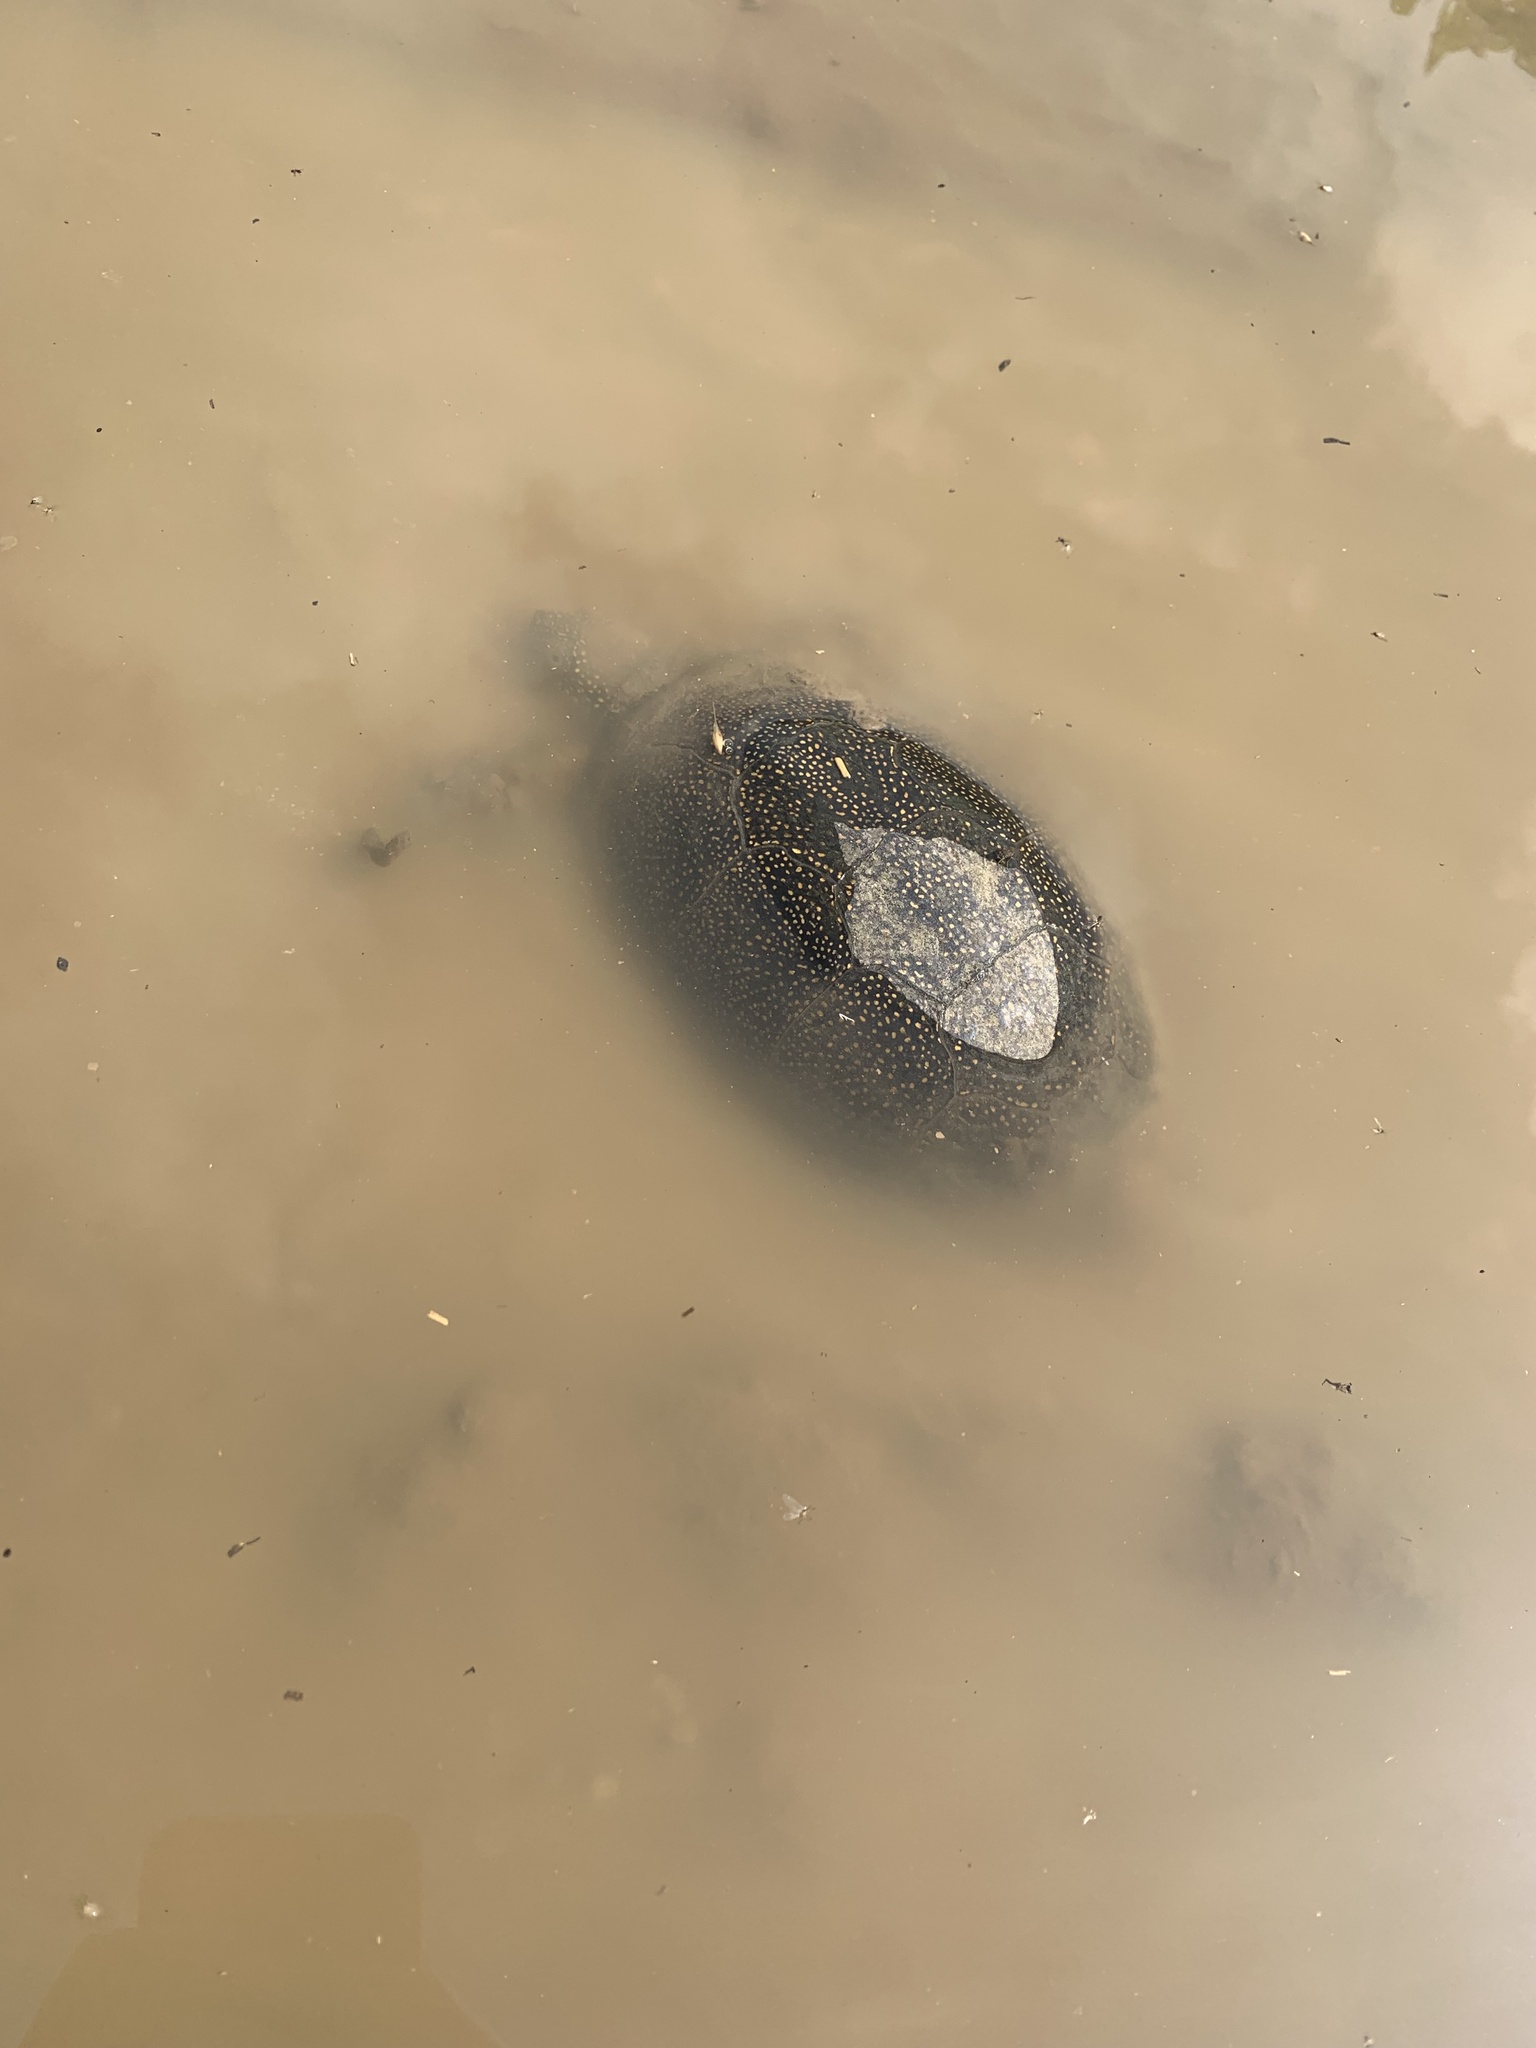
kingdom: Animalia
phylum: Chordata
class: Testudines
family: Emydidae
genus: Emys
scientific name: Emys orbicularis
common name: European pond turtle
